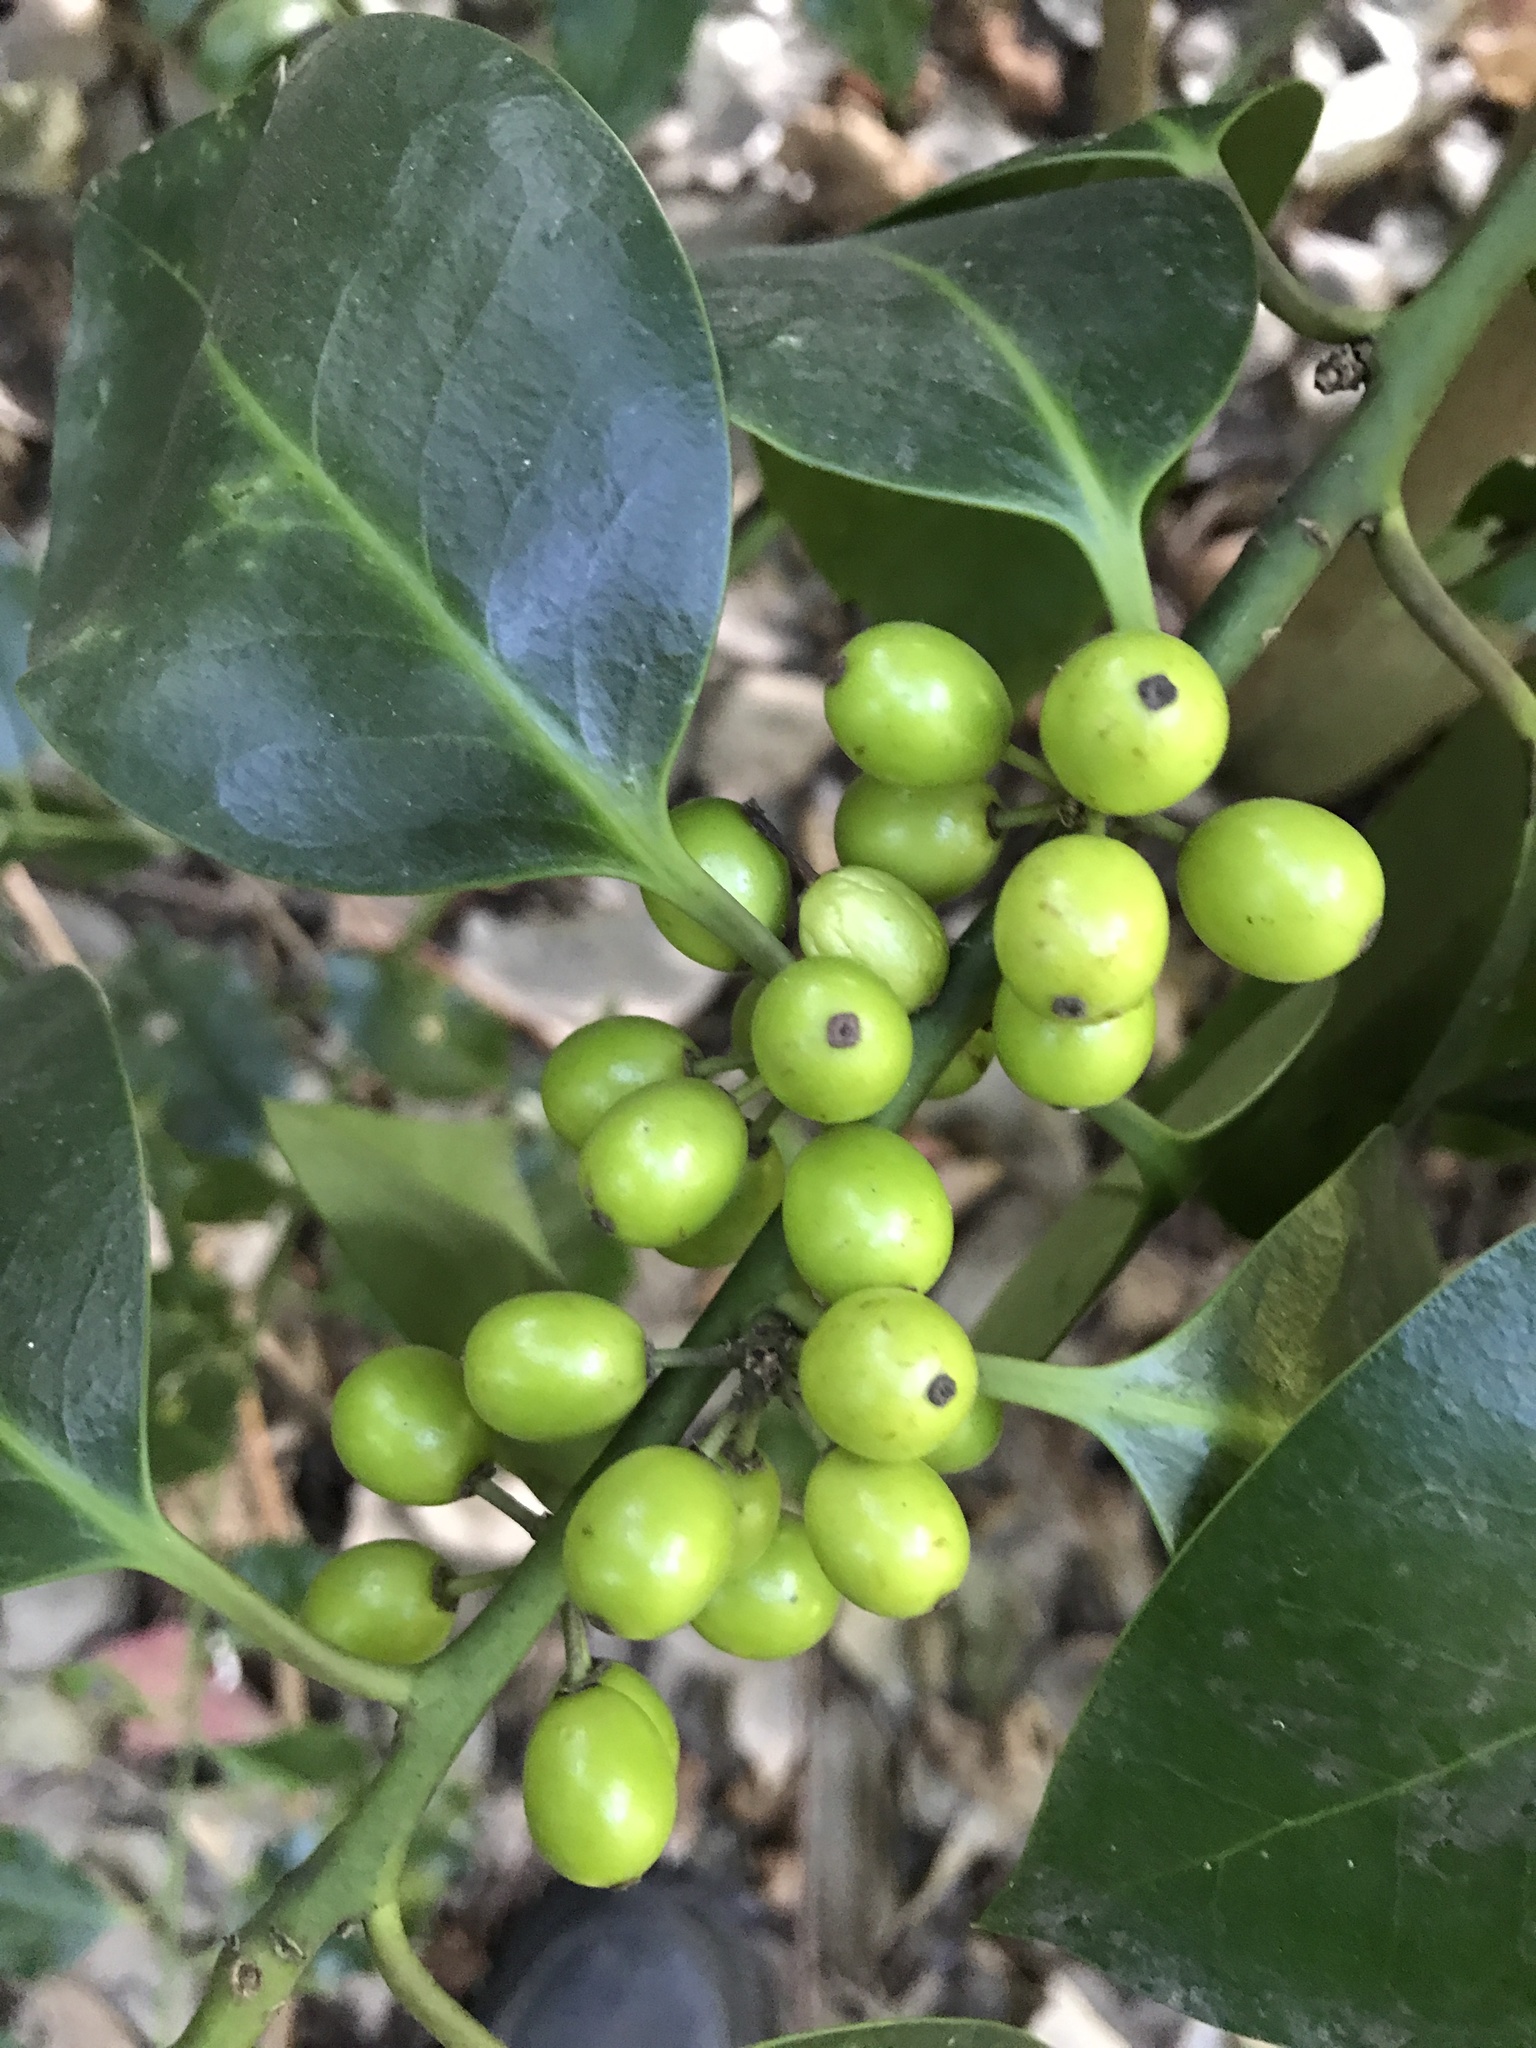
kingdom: Plantae
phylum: Tracheophyta
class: Magnoliopsida
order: Aquifoliales
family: Aquifoliaceae
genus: Ilex
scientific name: Ilex aquifolium
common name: English holly
